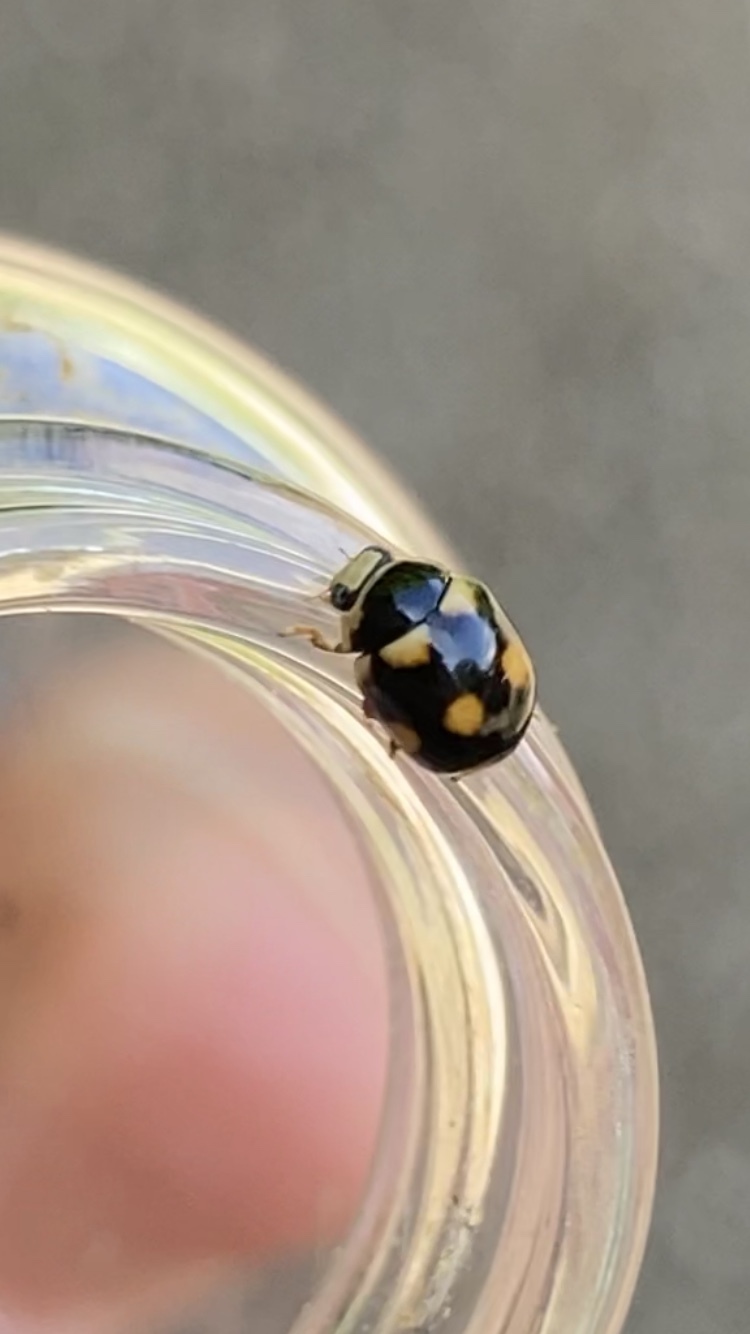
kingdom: Animalia
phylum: Arthropoda
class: Insecta
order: Coleoptera
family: Coccinellidae
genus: Brachiacantha
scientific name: Brachiacantha ursina
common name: Ursine spurleg lady beetle
